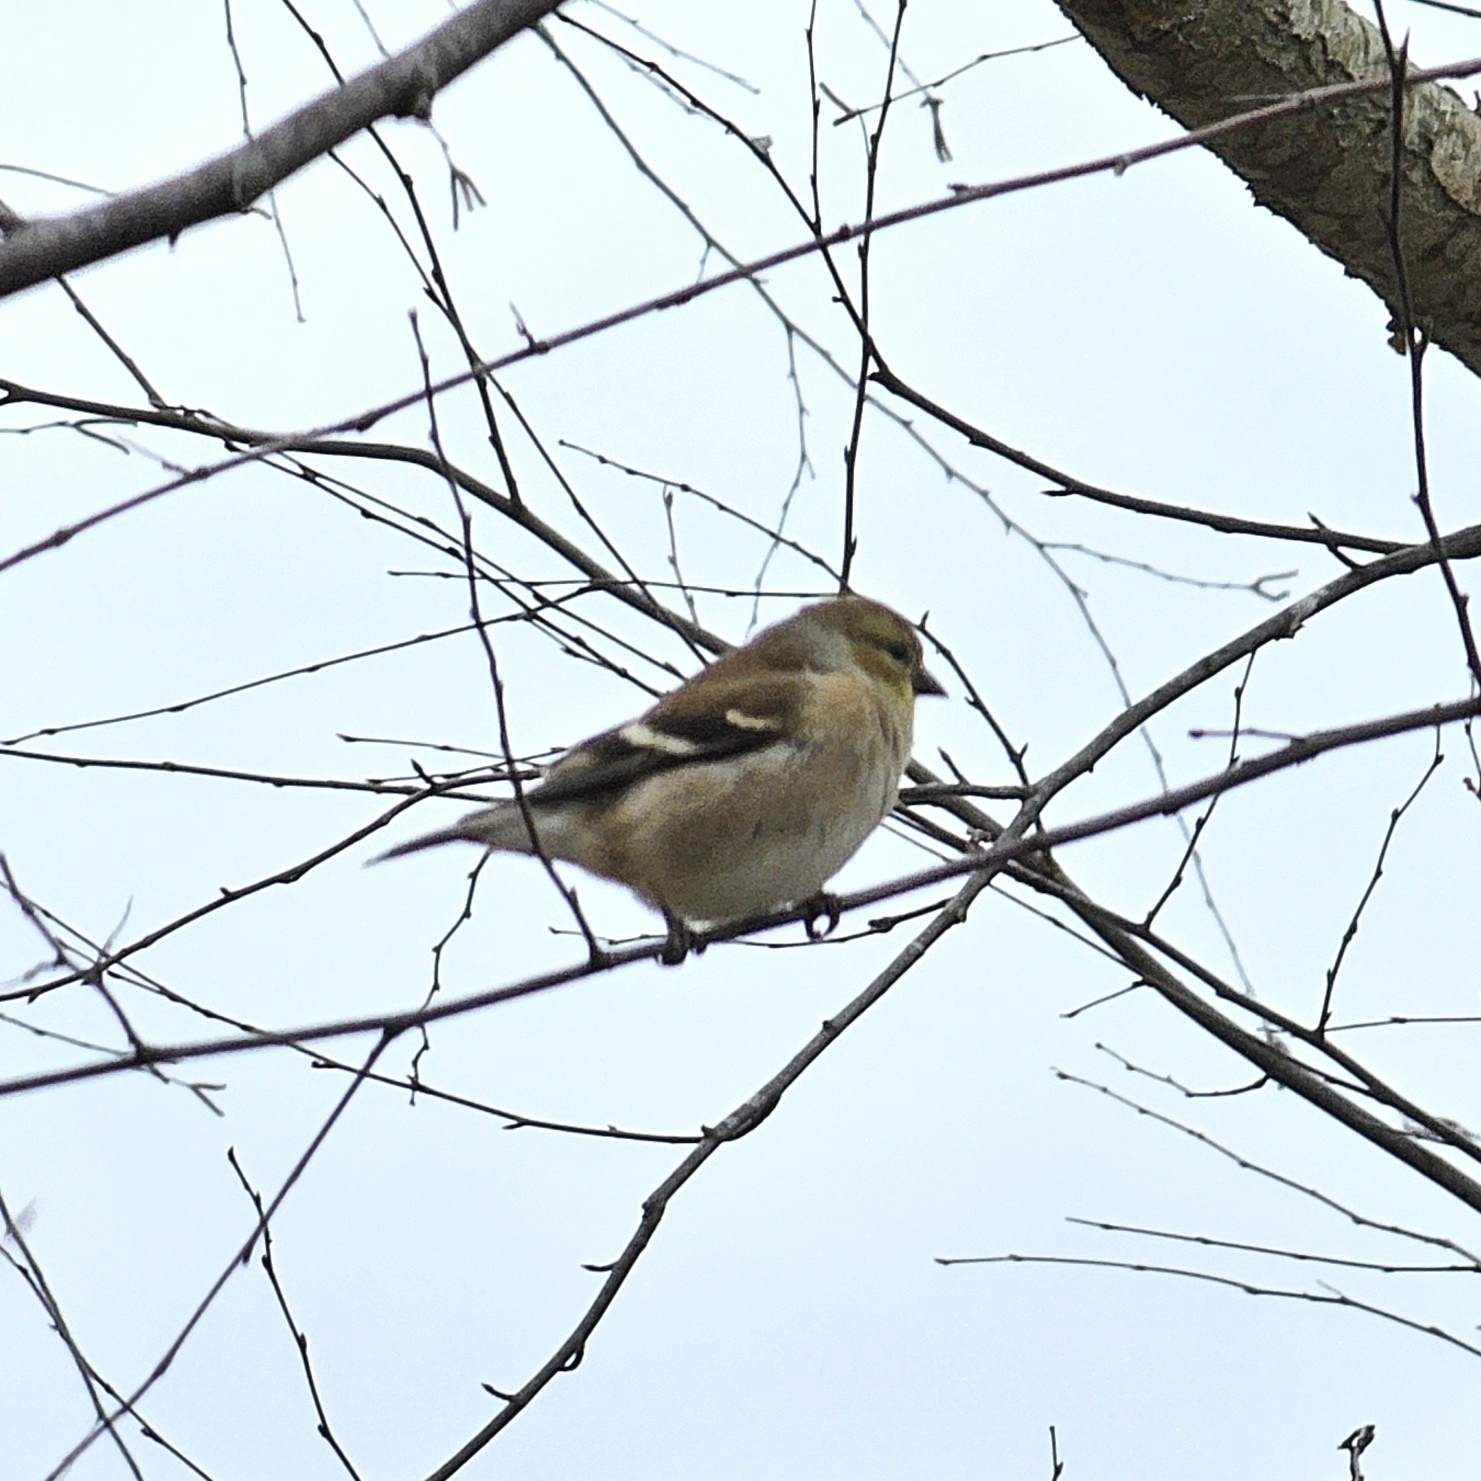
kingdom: Animalia
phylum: Chordata
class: Aves
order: Passeriformes
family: Fringillidae
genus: Spinus
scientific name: Spinus tristis
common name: American goldfinch
